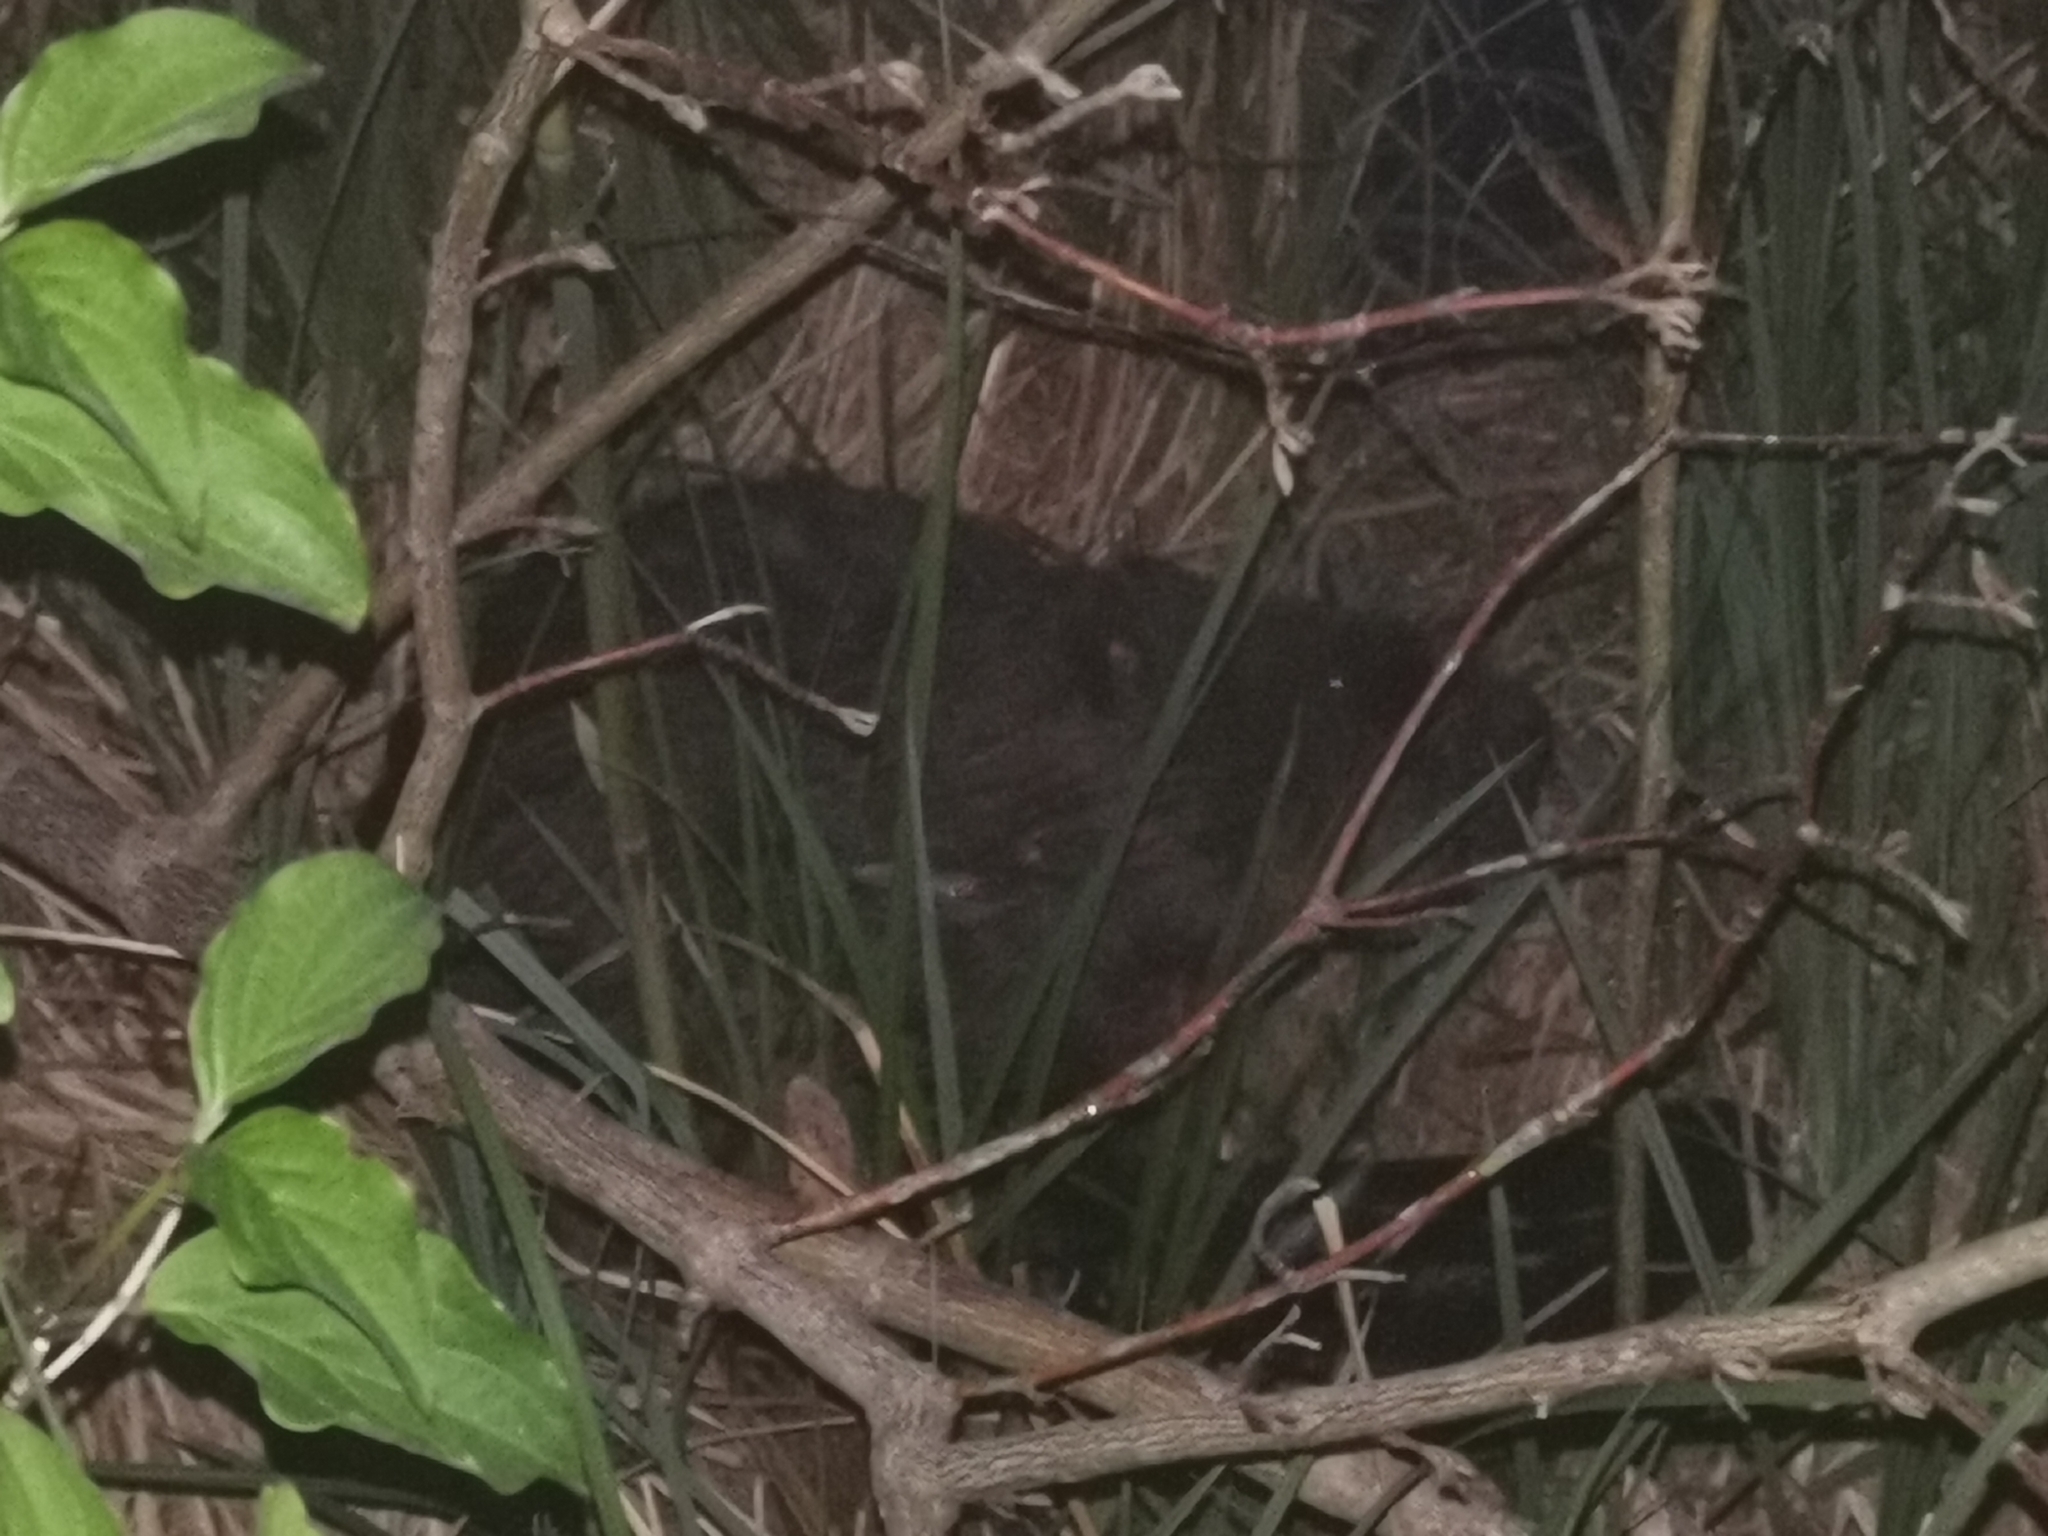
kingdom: Animalia
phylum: Chordata
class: Mammalia
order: Rodentia
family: Castoridae
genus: Castor
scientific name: Castor fiber
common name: Eurasian beaver
